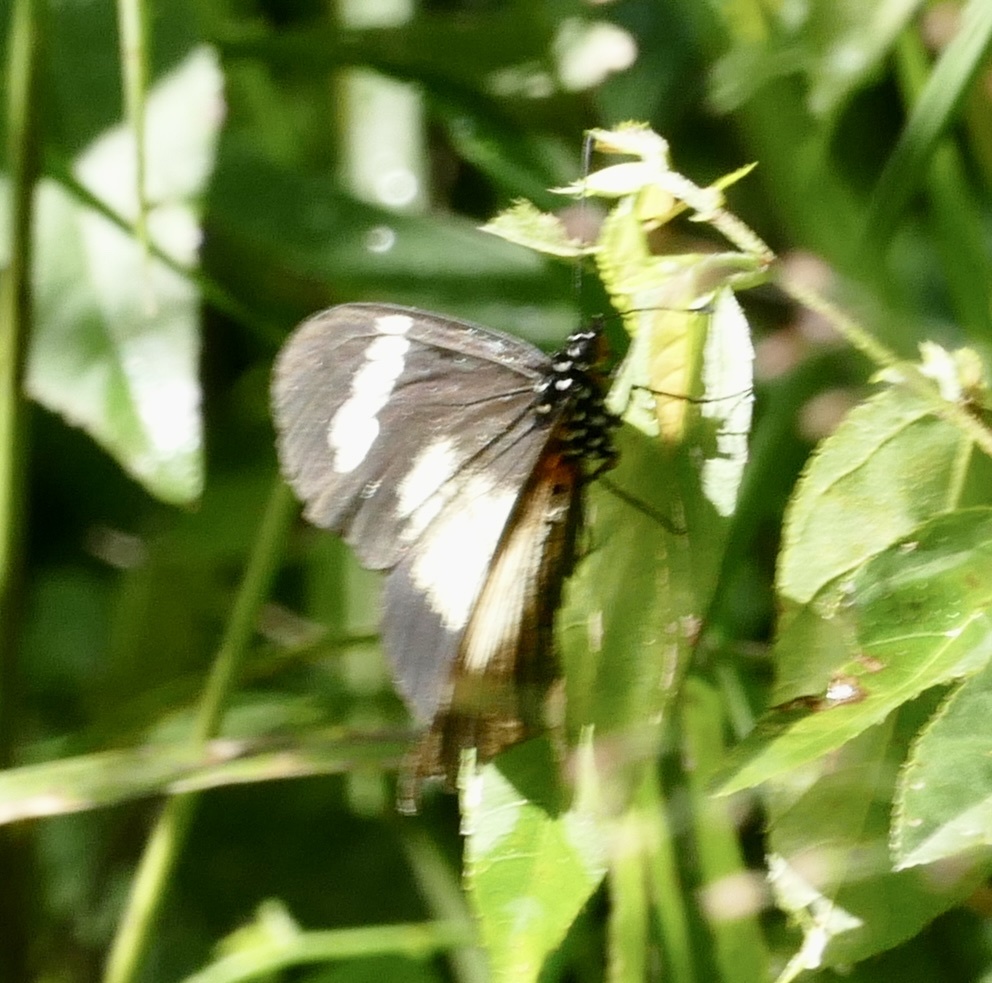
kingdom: Animalia
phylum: Arthropoda
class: Insecta
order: Lepidoptera
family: Nymphalidae
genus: Acraea
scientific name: Acraea esebria
